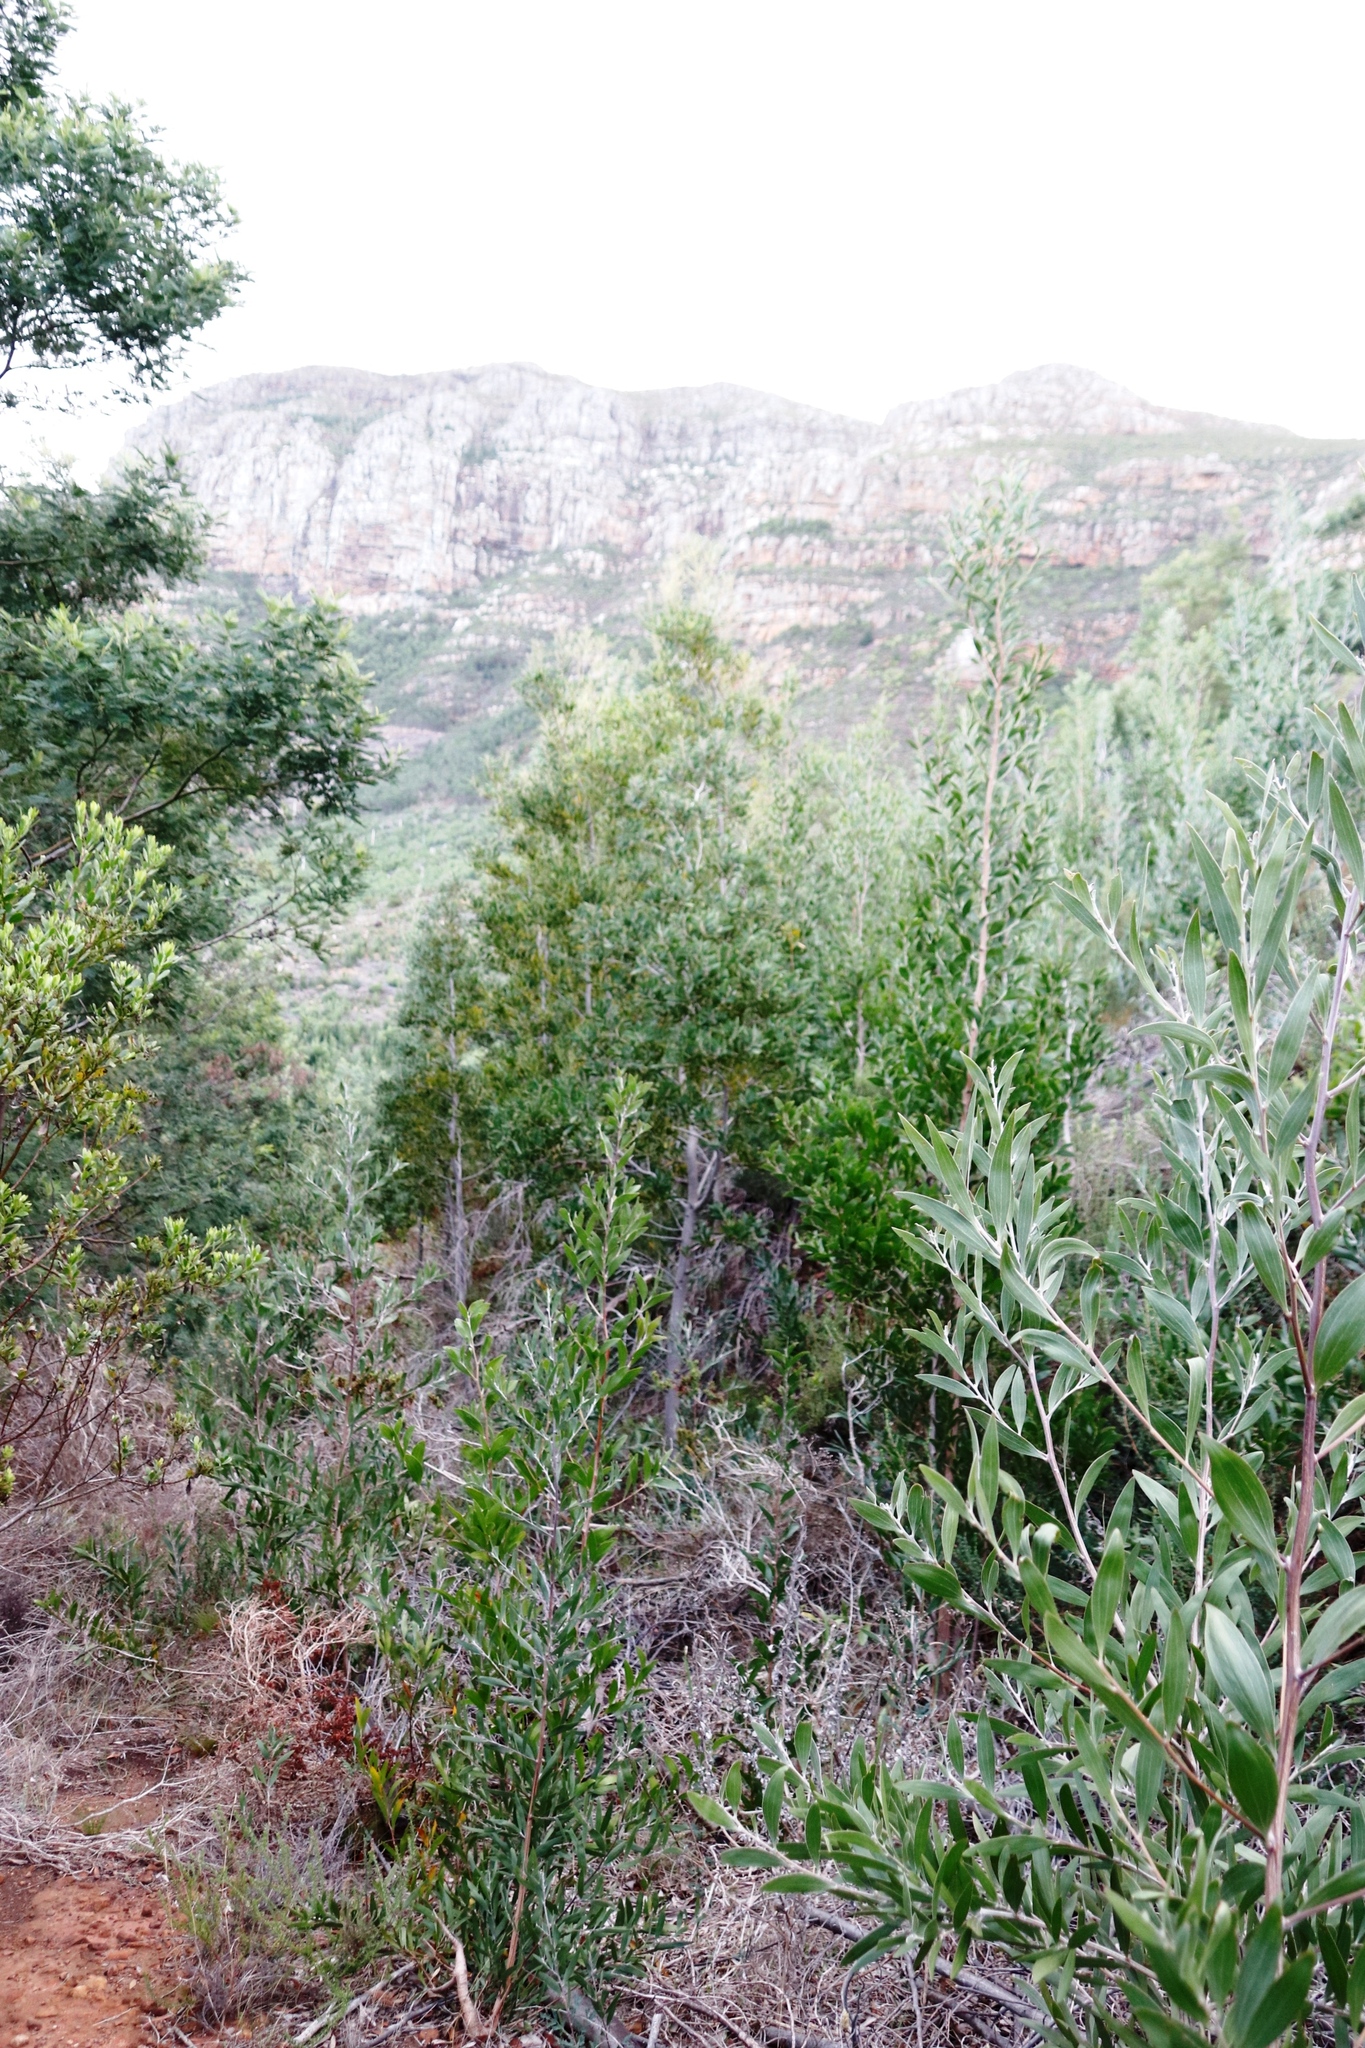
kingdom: Plantae
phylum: Tracheophyta
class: Magnoliopsida
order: Fabales
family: Fabaceae
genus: Acacia
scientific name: Acacia melanoxylon
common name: Blackwood
